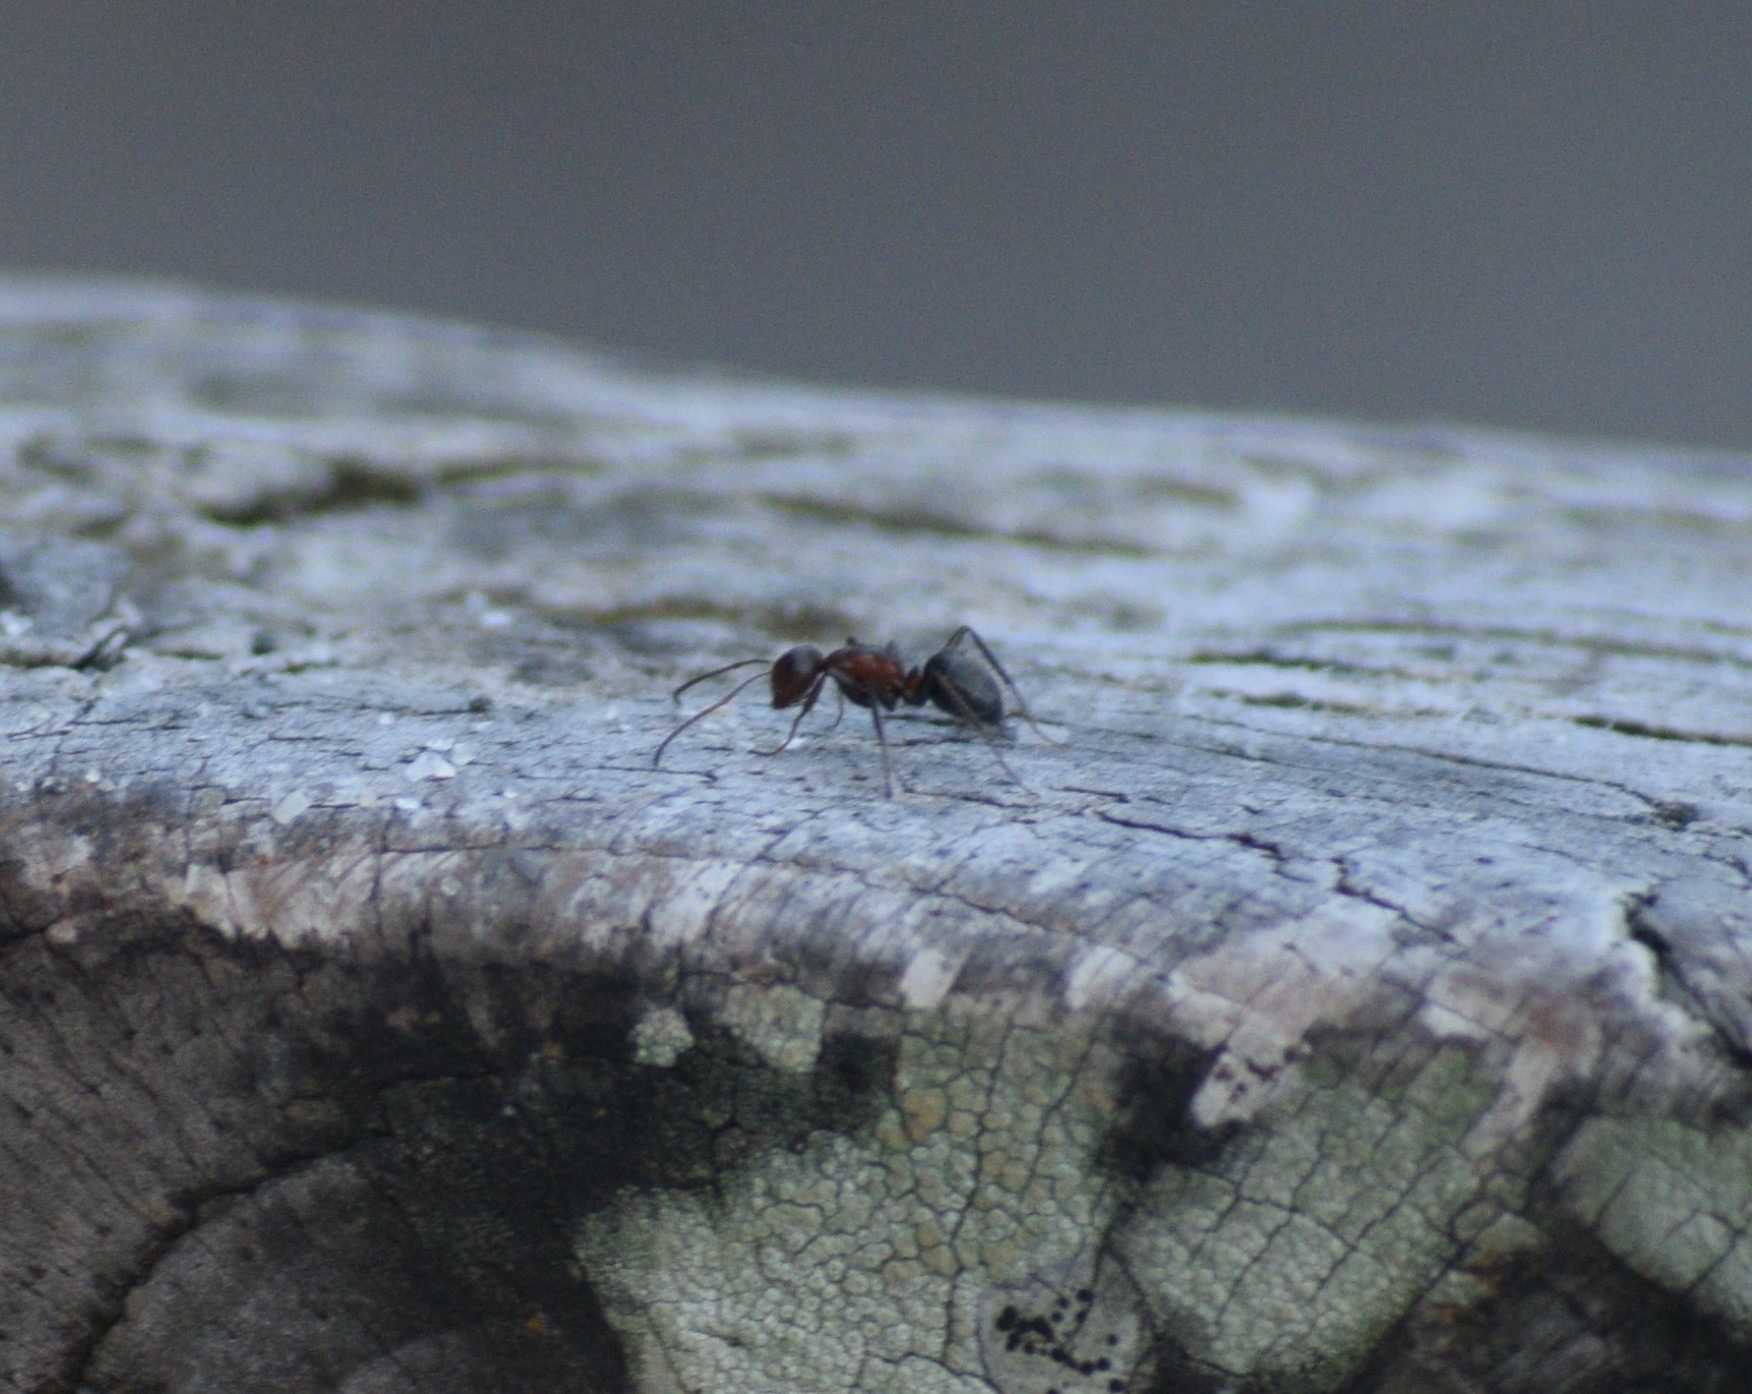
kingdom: Animalia
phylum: Arthropoda
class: Insecta
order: Hymenoptera
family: Formicidae
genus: Camponotus
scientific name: Camponotus planatus
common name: Compact carpenter ant
